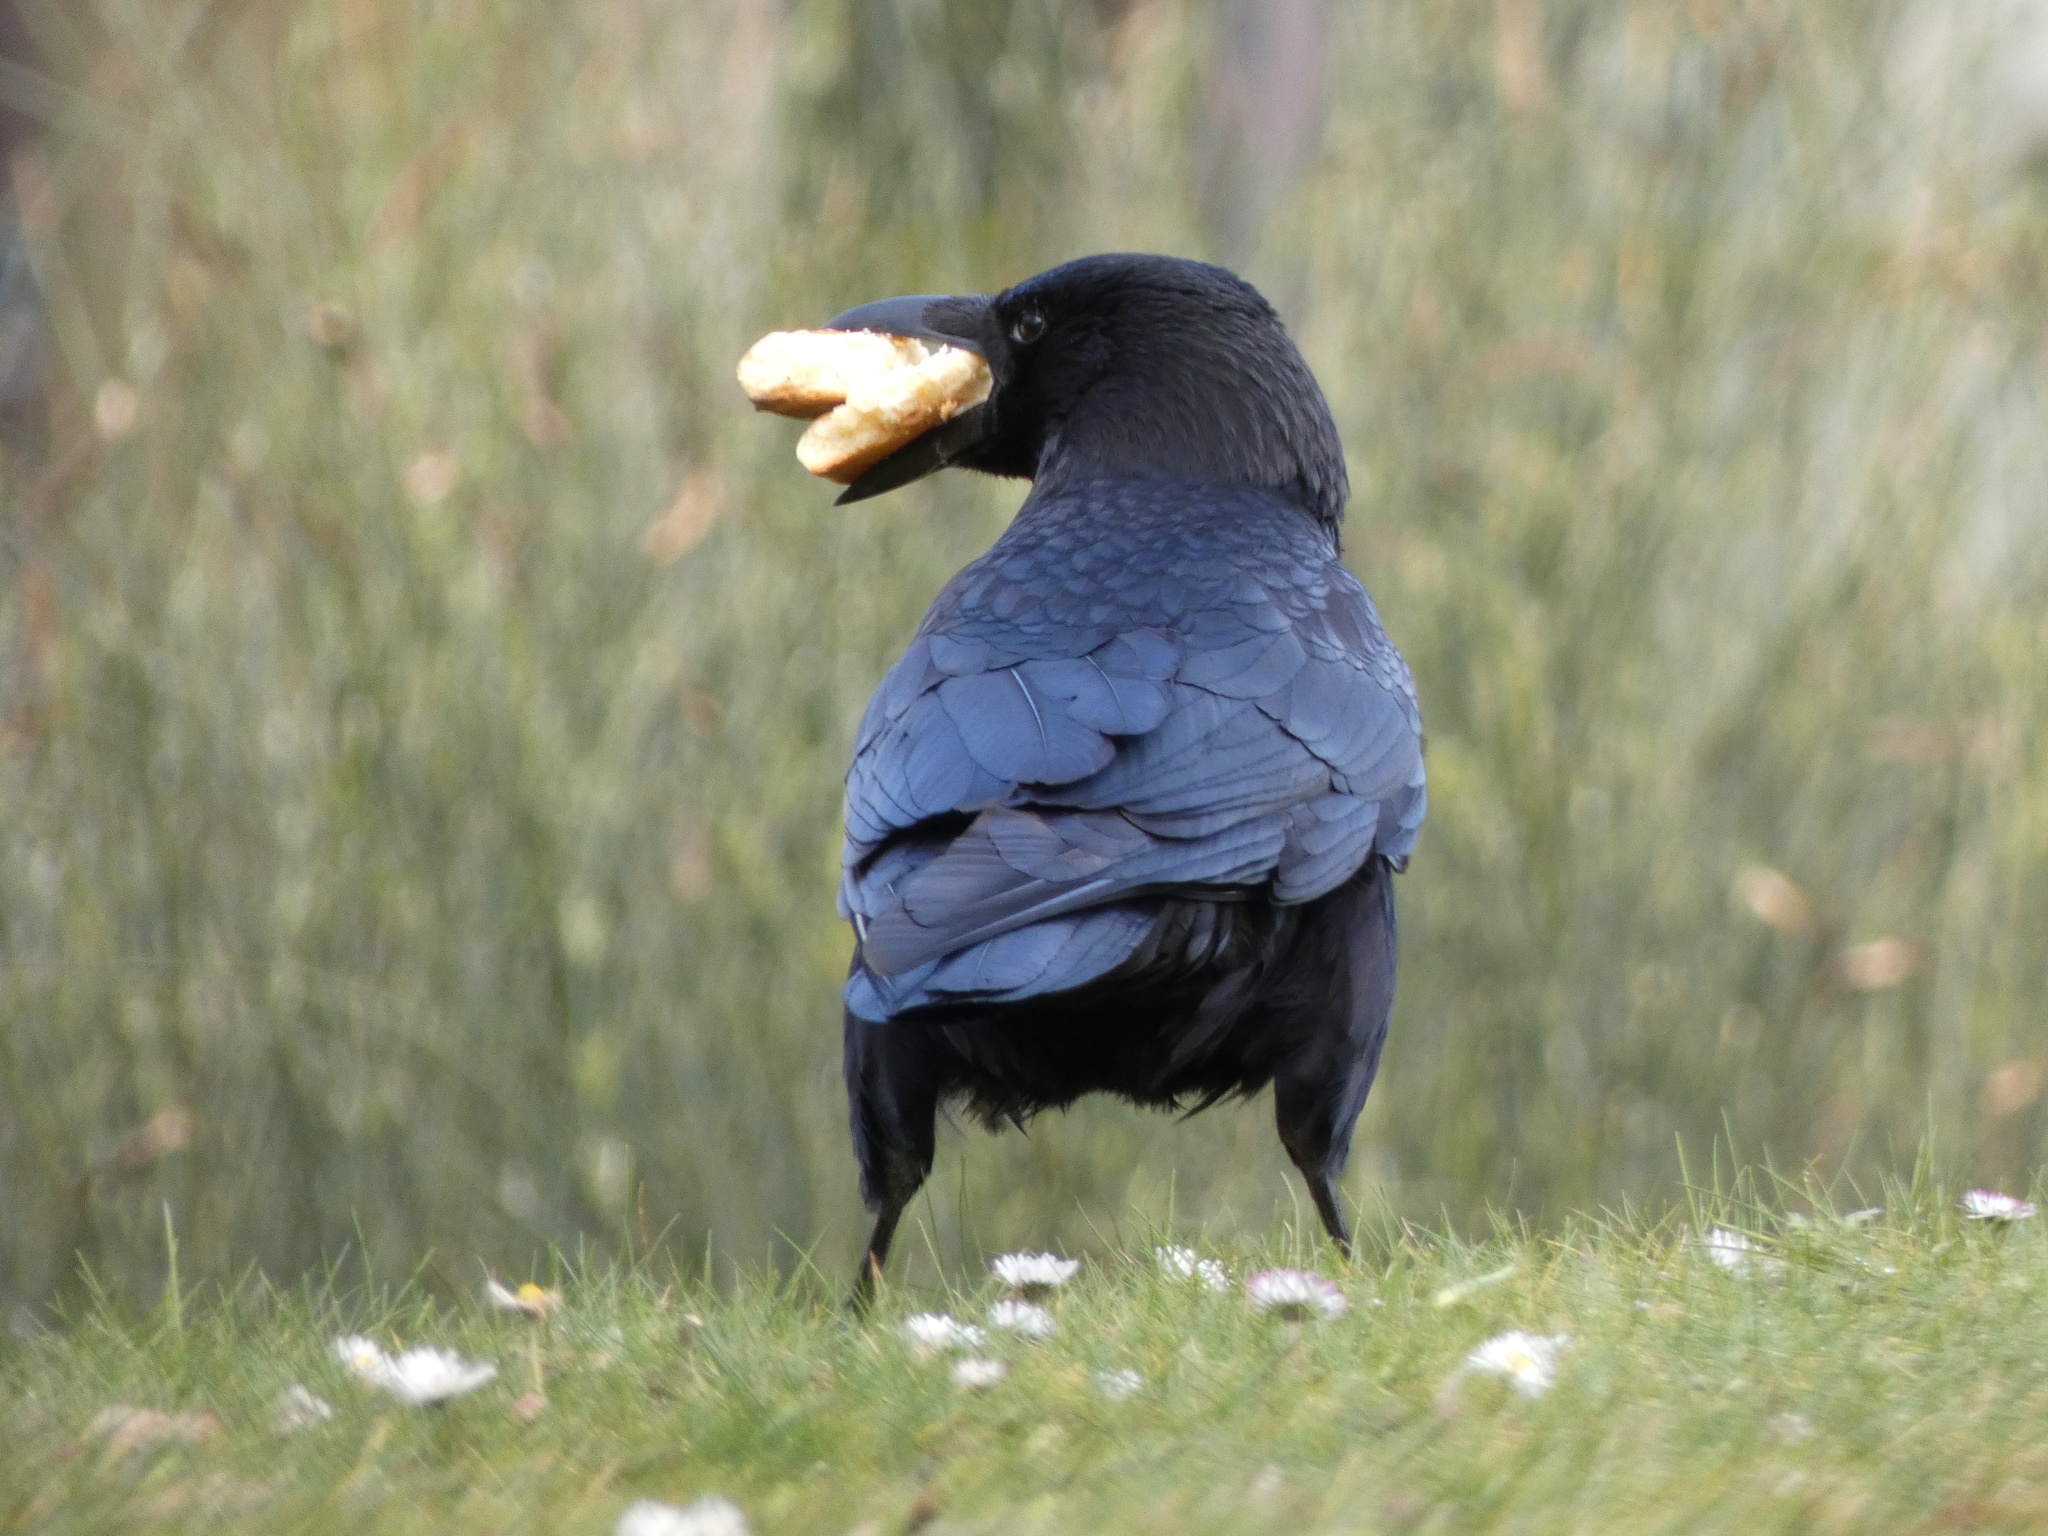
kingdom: Animalia
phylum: Chordata
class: Aves
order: Passeriformes
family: Corvidae
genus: Corvus
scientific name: Corvus corone
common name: Carrion crow
